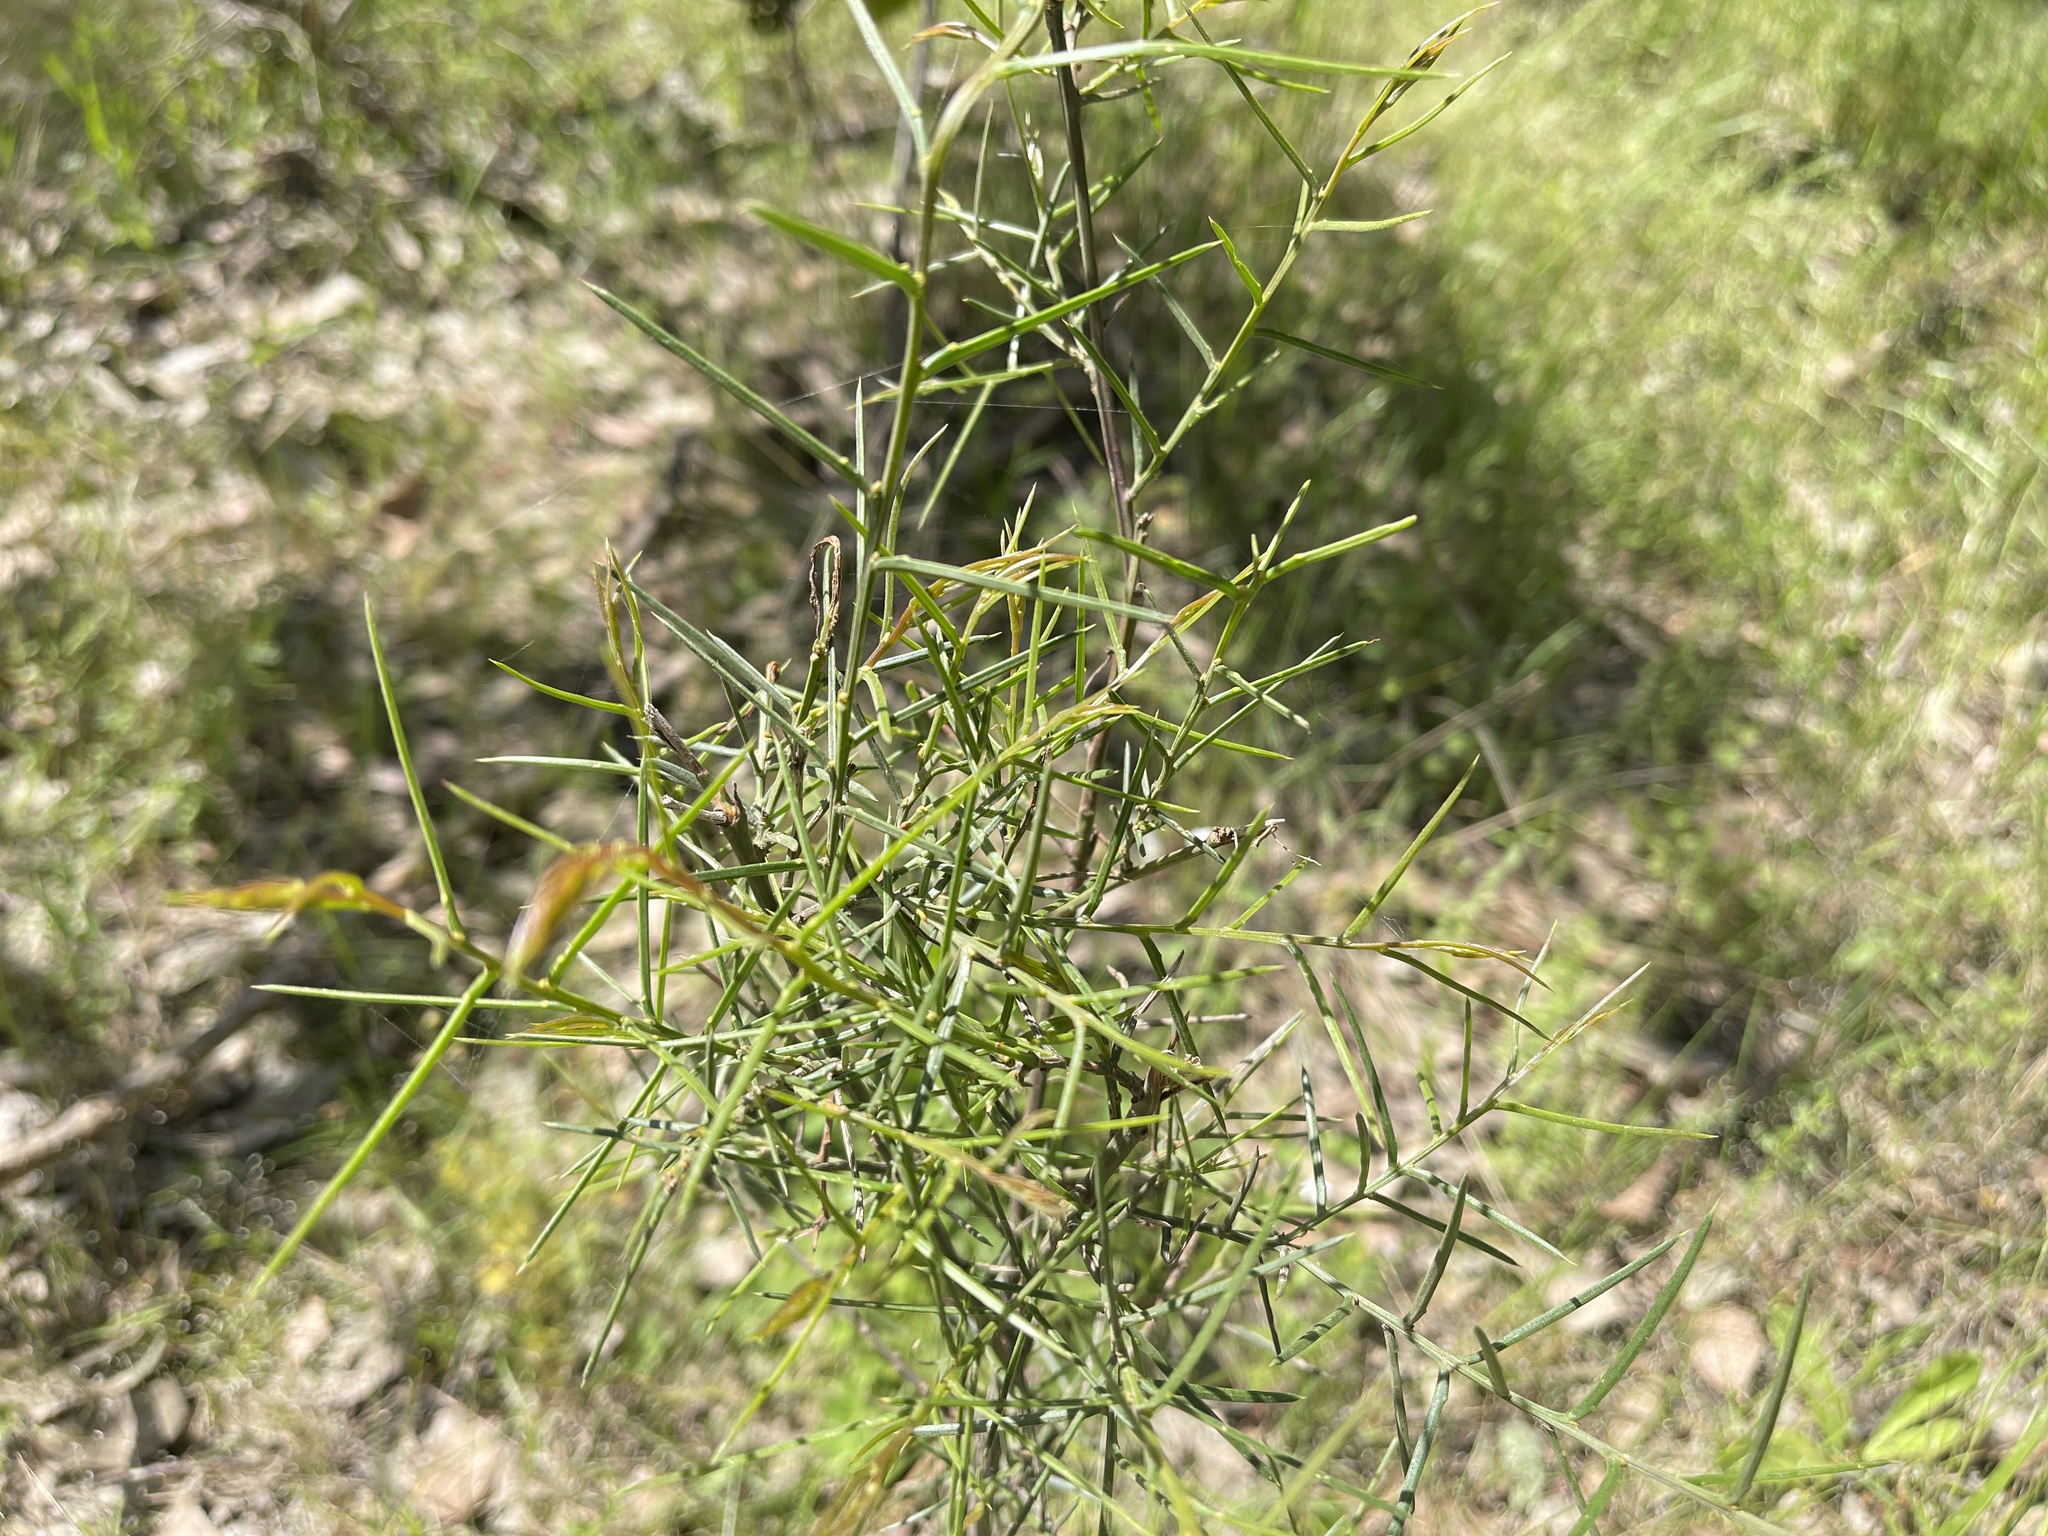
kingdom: Plantae
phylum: Tracheophyta
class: Magnoliopsida
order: Fabales
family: Fabaceae
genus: Acacia
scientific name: Acacia genistifolia
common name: Early wattle
